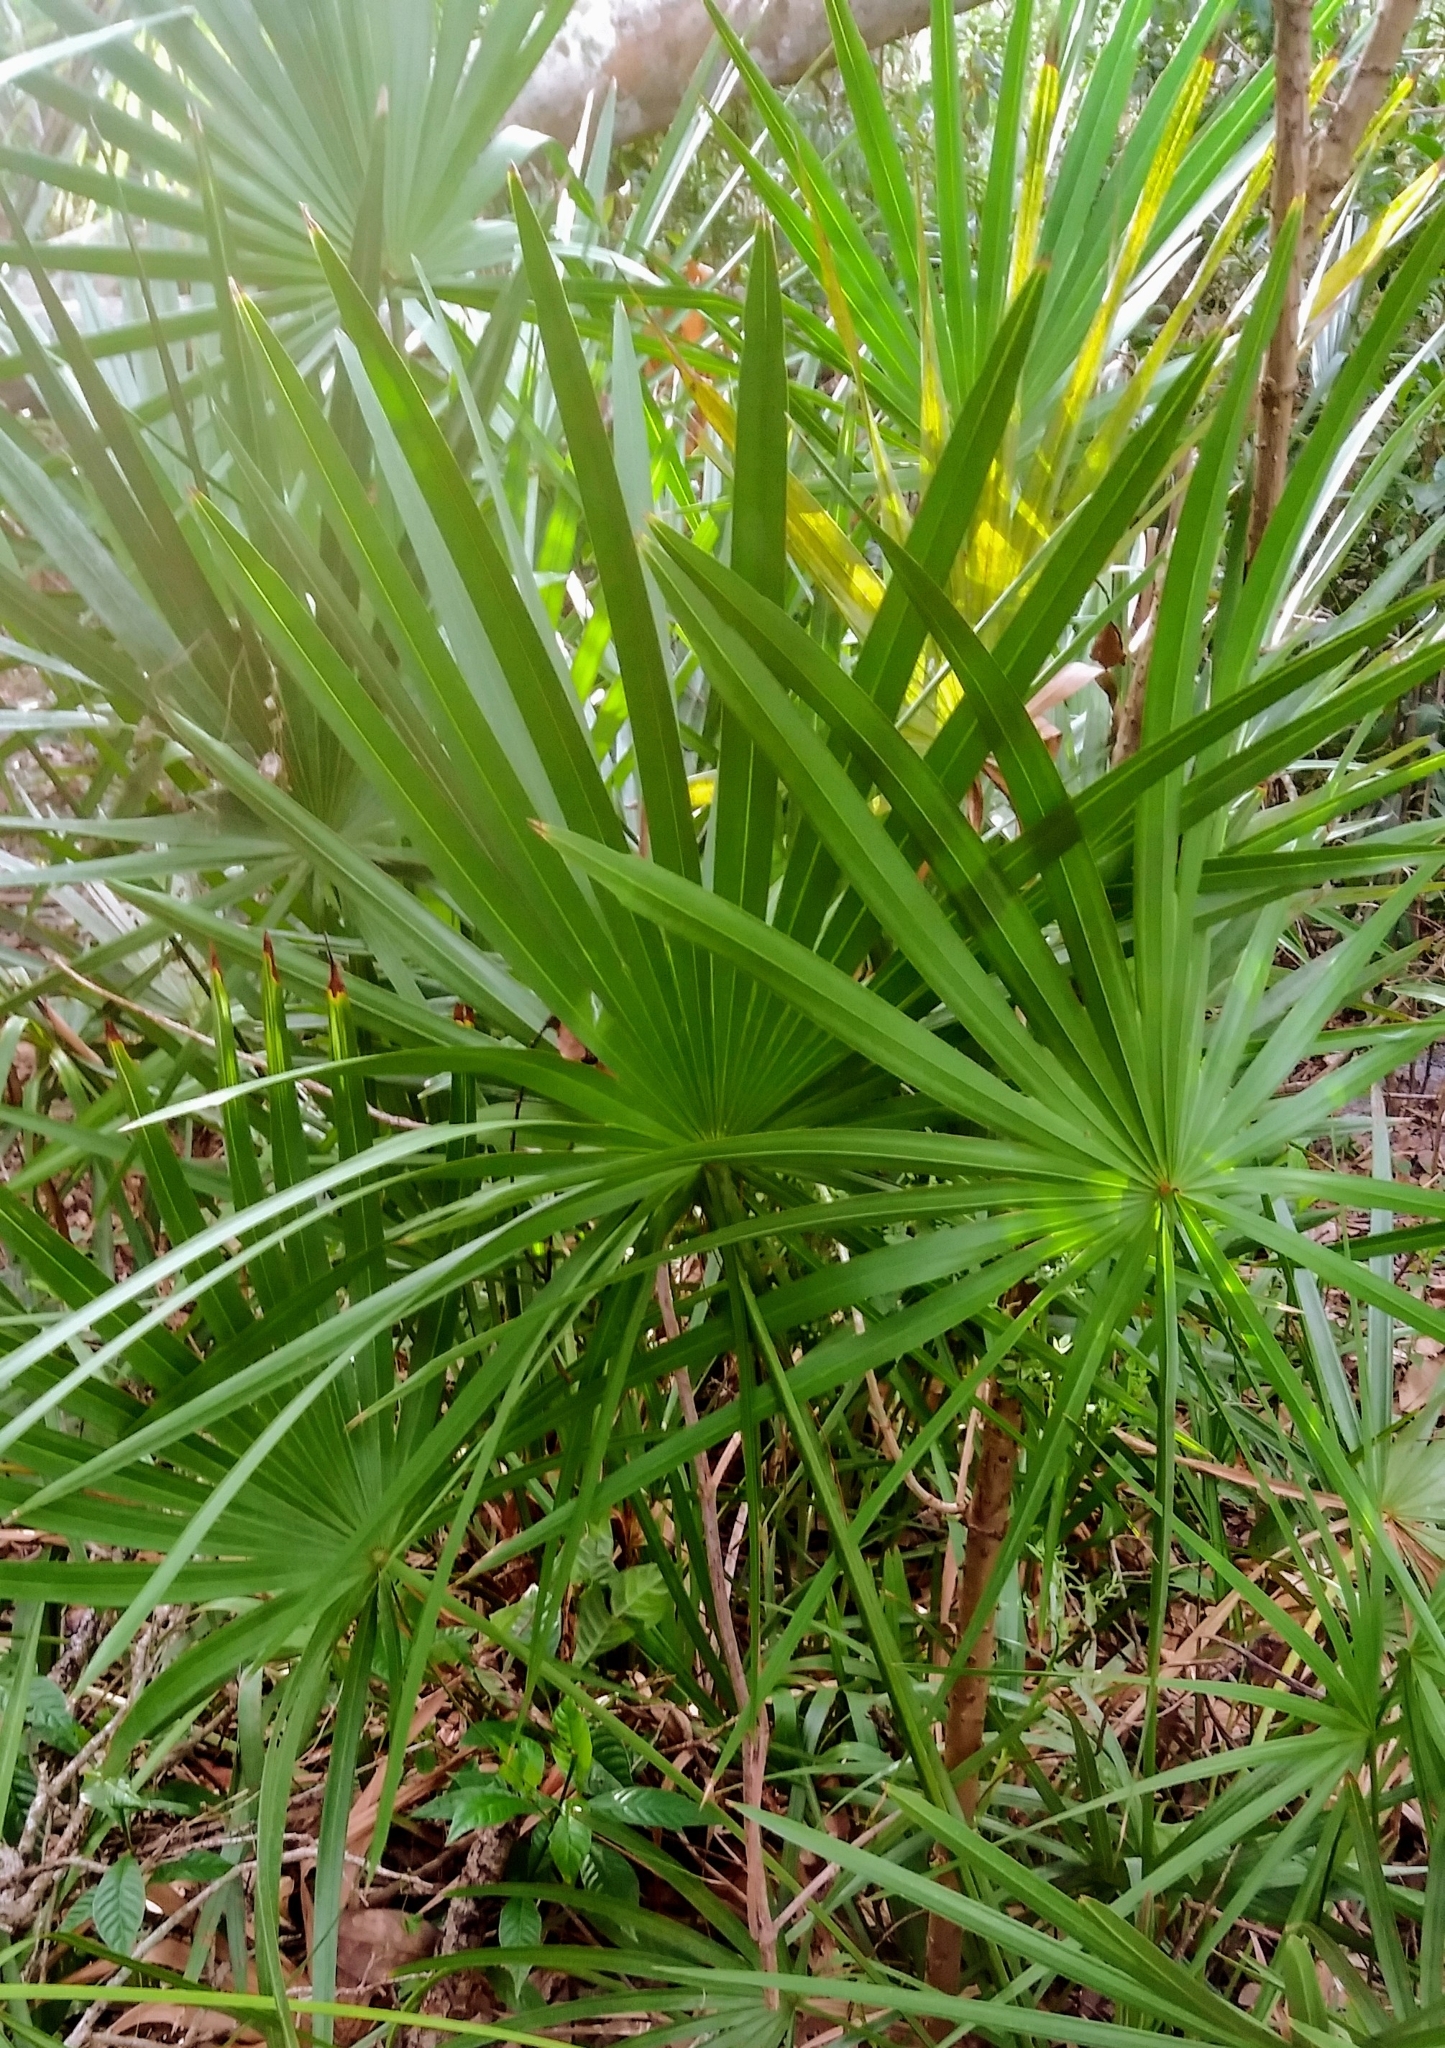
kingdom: Plantae
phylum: Tracheophyta
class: Liliopsida
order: Arecales
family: Arecaceae
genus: Serenoa
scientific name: Serenoa repens
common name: Saw-palmetto
